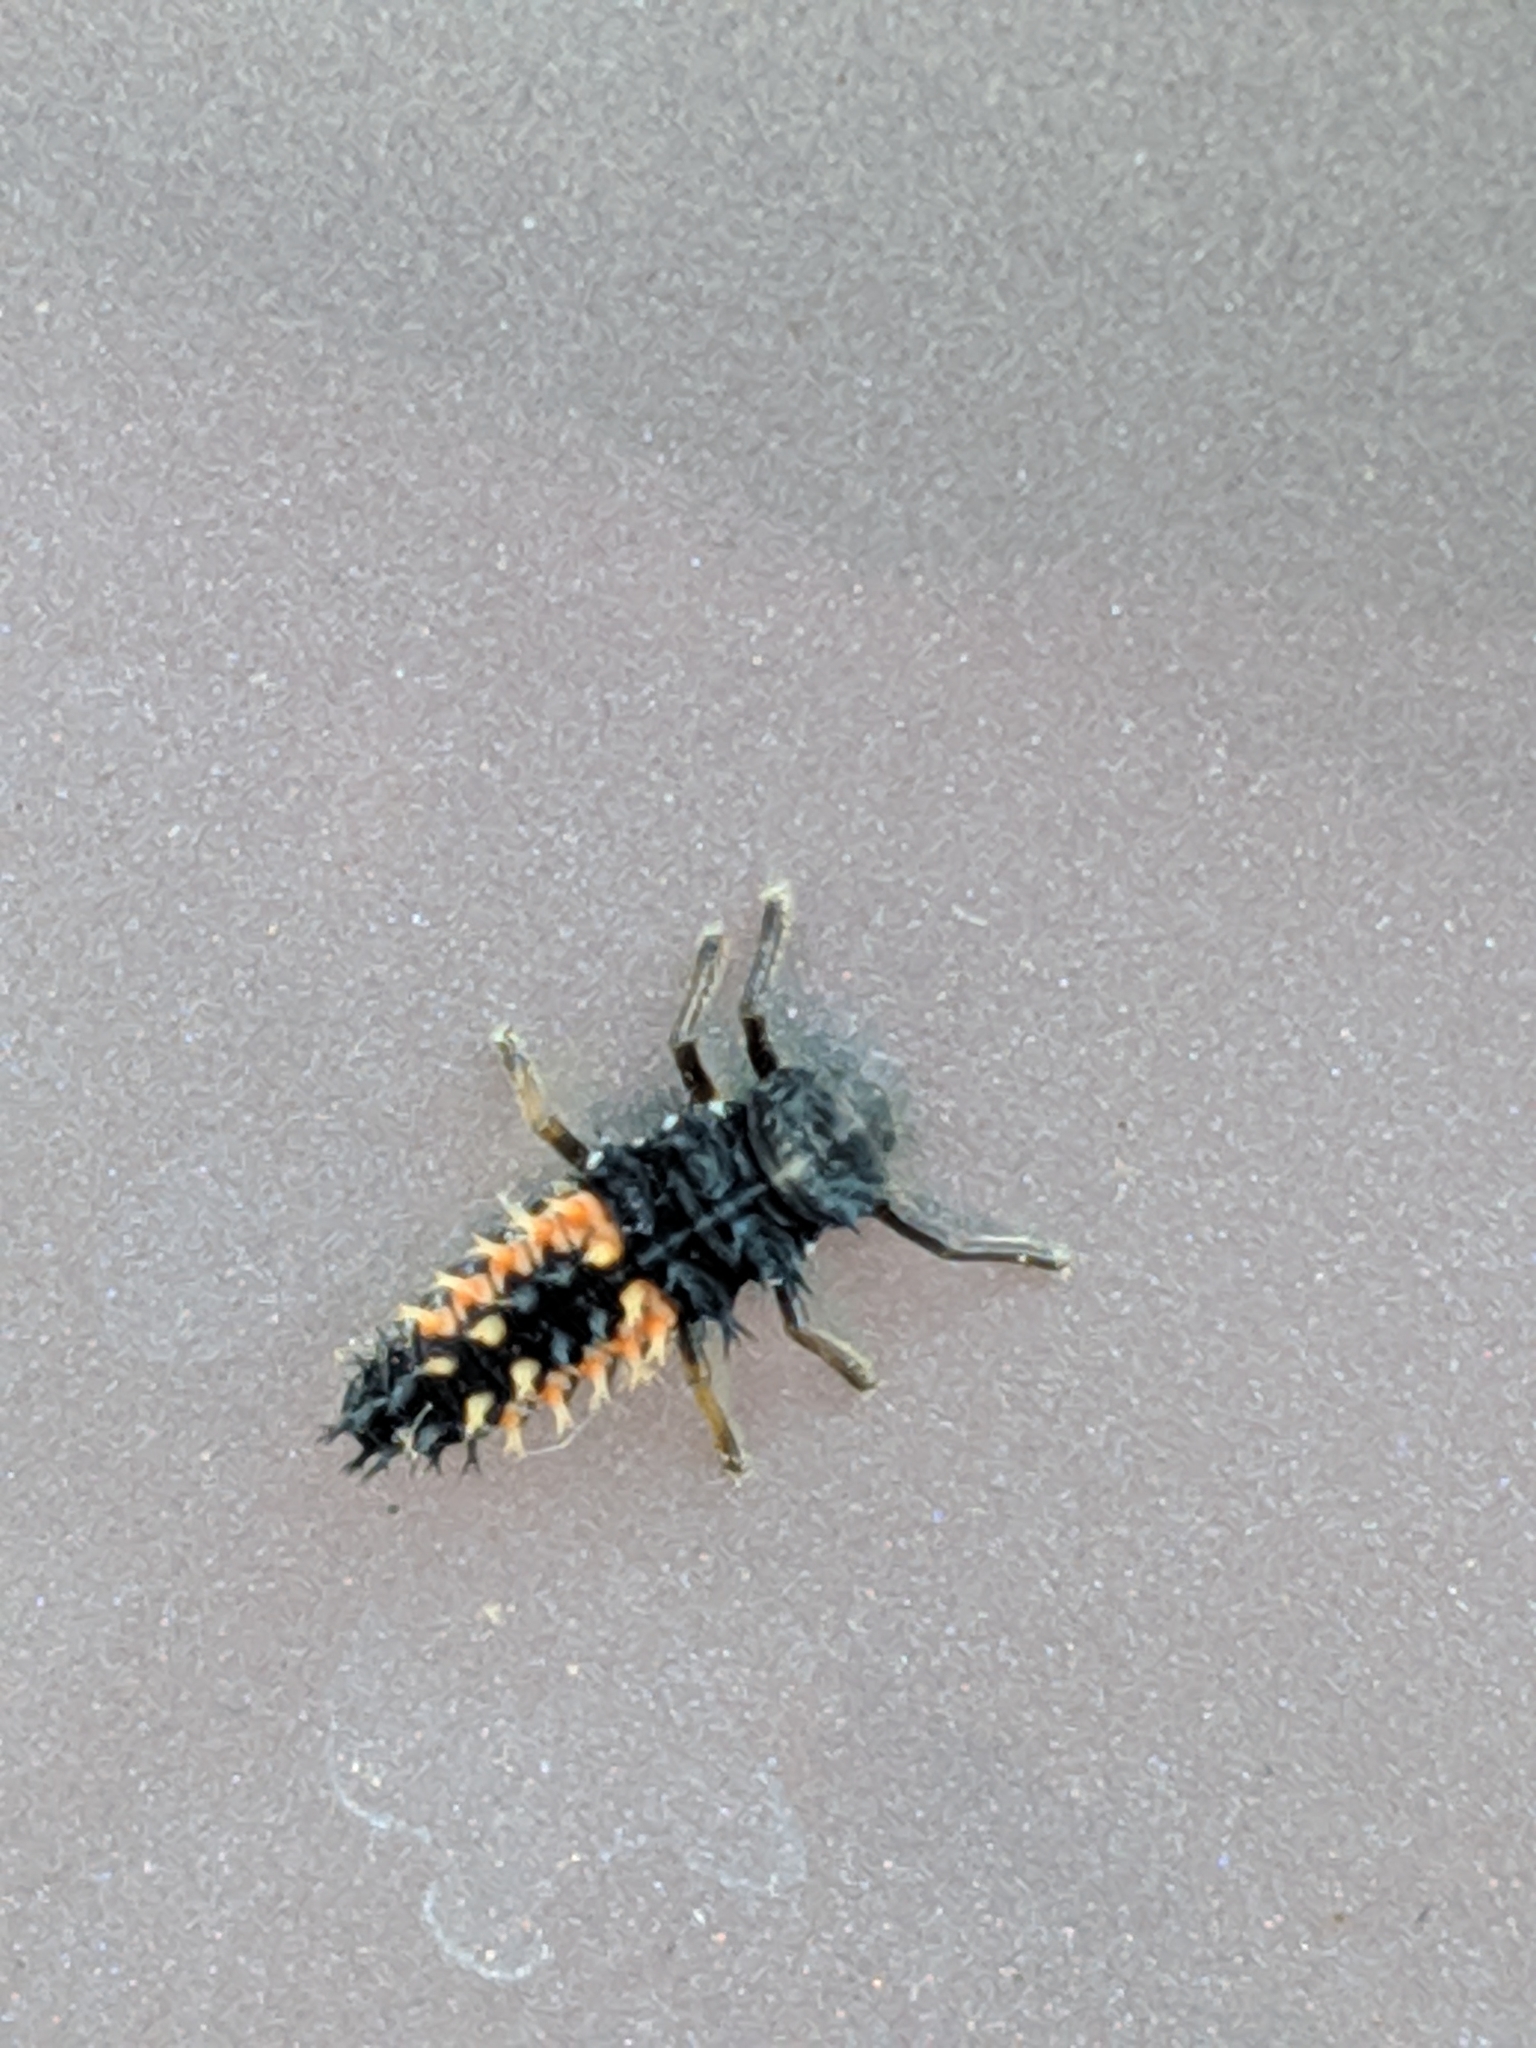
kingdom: Animalia
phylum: Arthropoda
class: Insecta
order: Coleoptera
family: Coccinellidae
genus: Harmonia
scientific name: Harmonia axyridis
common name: Harlequin ladybird
